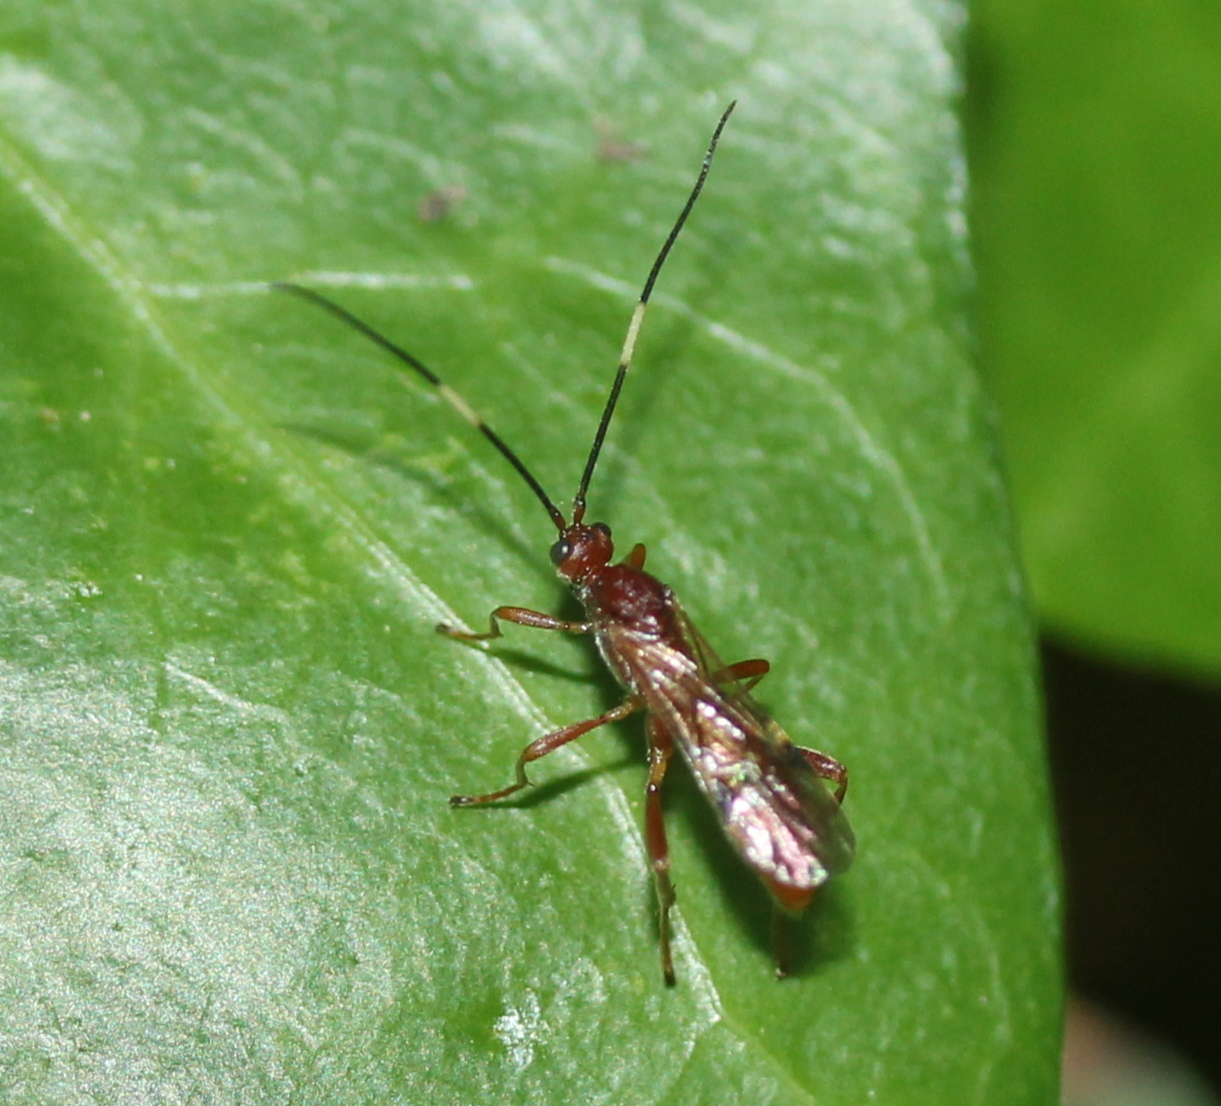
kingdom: Animalia
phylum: Arthropoda
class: Insecta
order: Hymenoptera
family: Braconidae
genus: Aleiodes
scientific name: Aleiodes smithi
